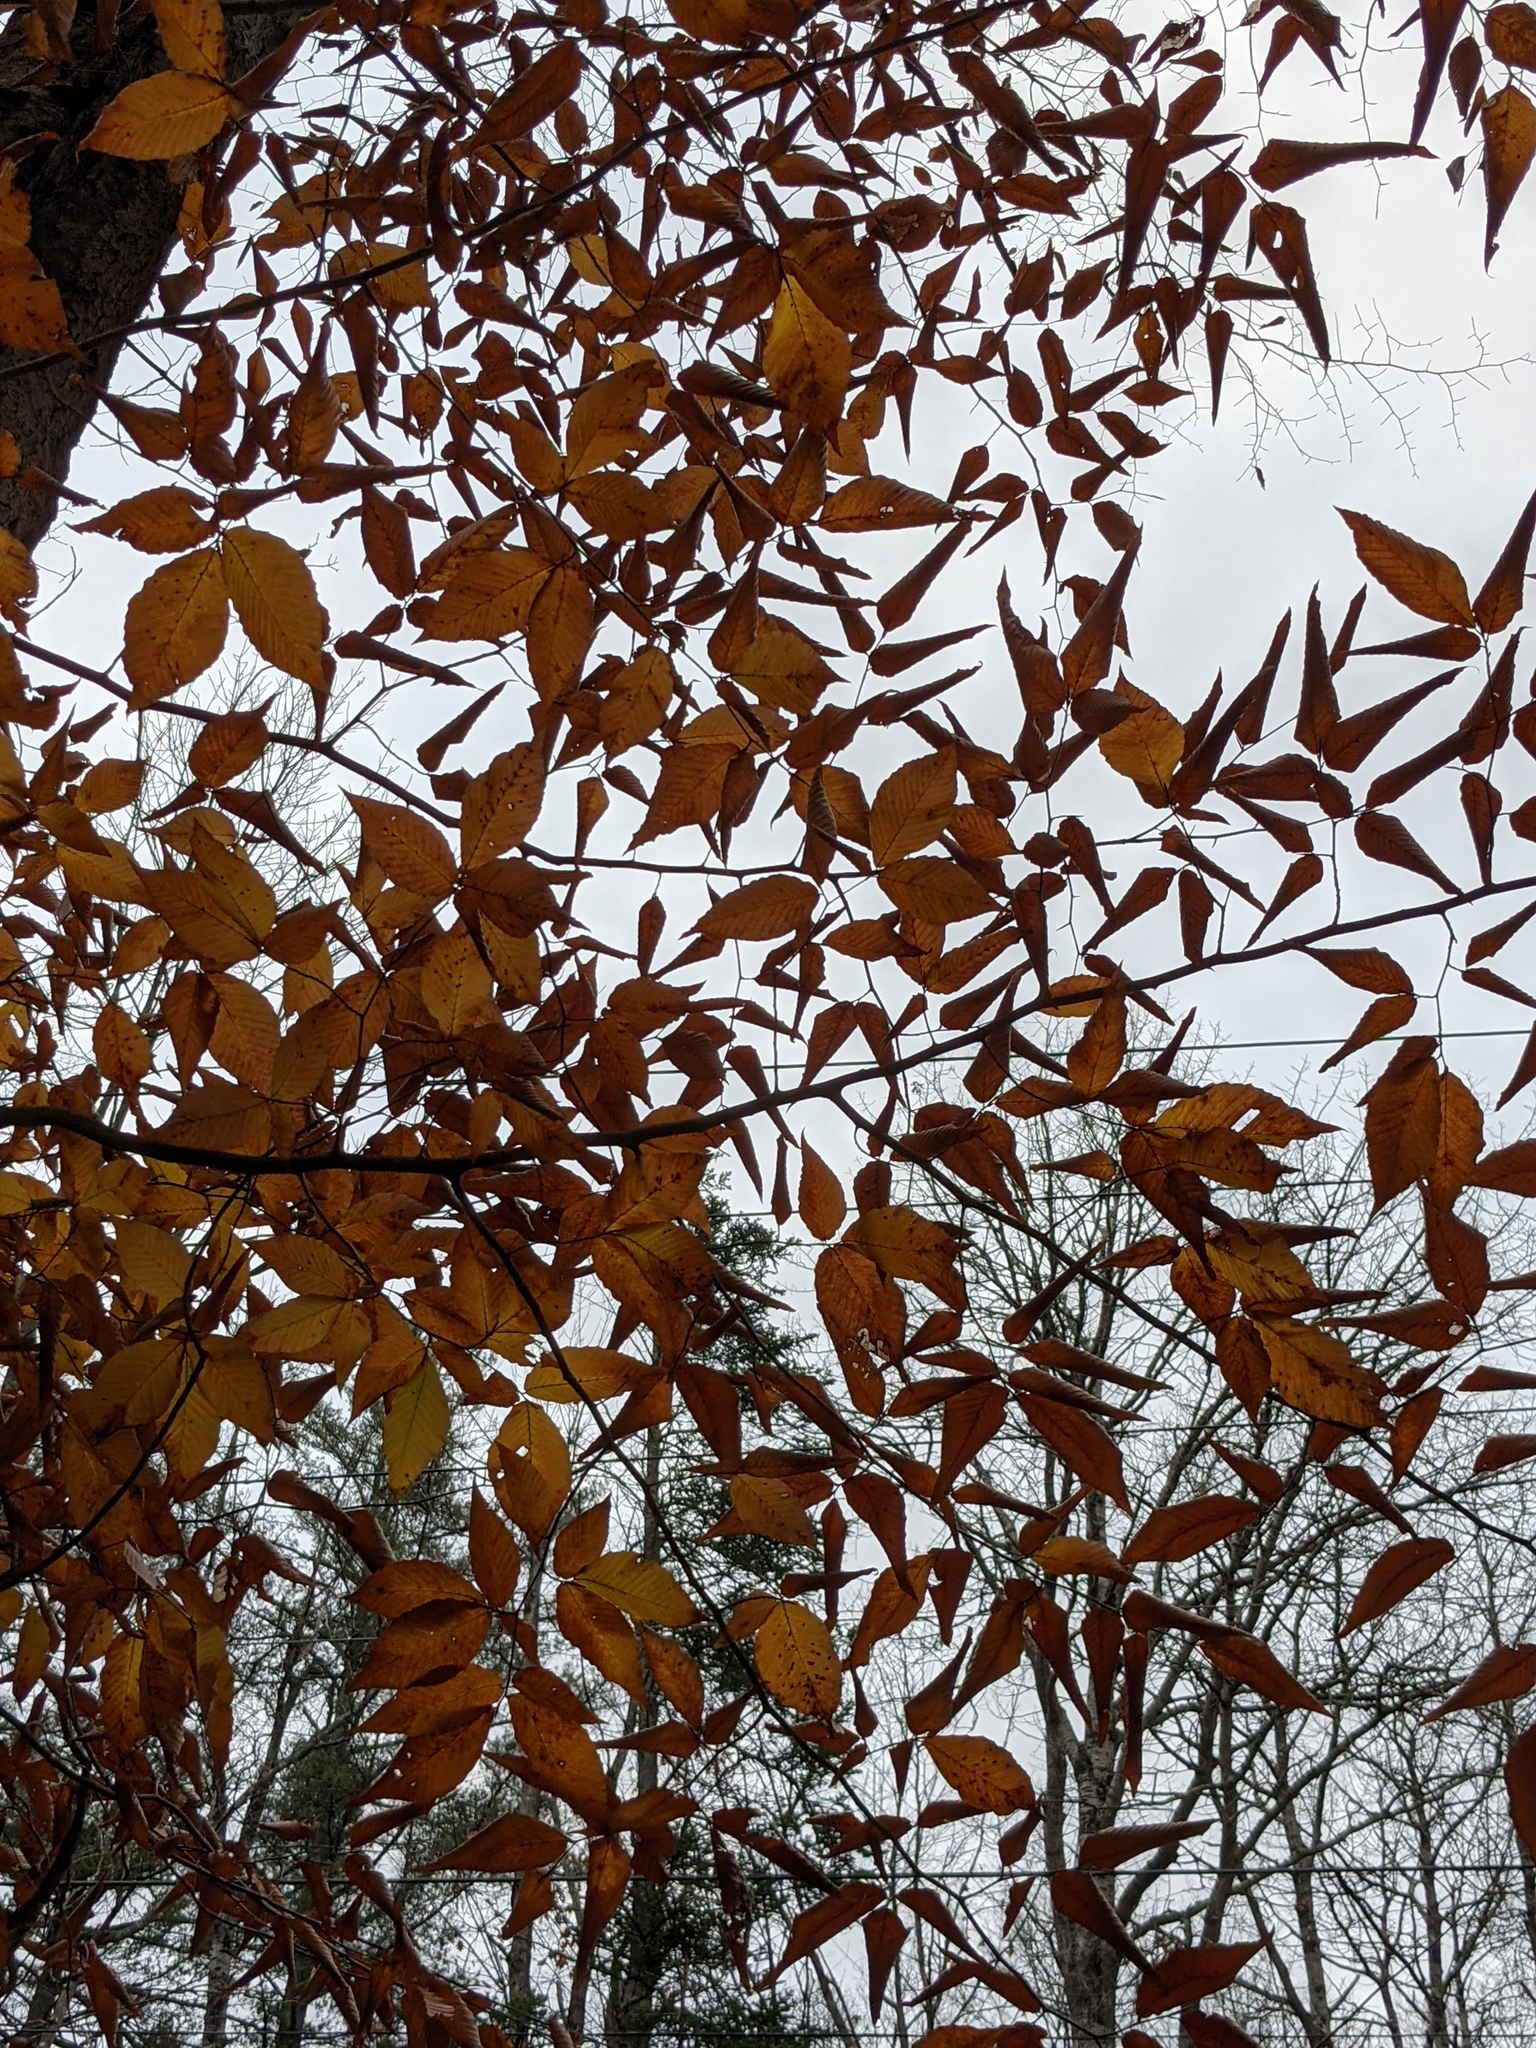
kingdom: Plantae
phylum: Tracheophyta
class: Magnoliopsida
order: Fagales
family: Fagaceae
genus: Fagus
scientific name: Fagus grandifolia
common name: American beech
